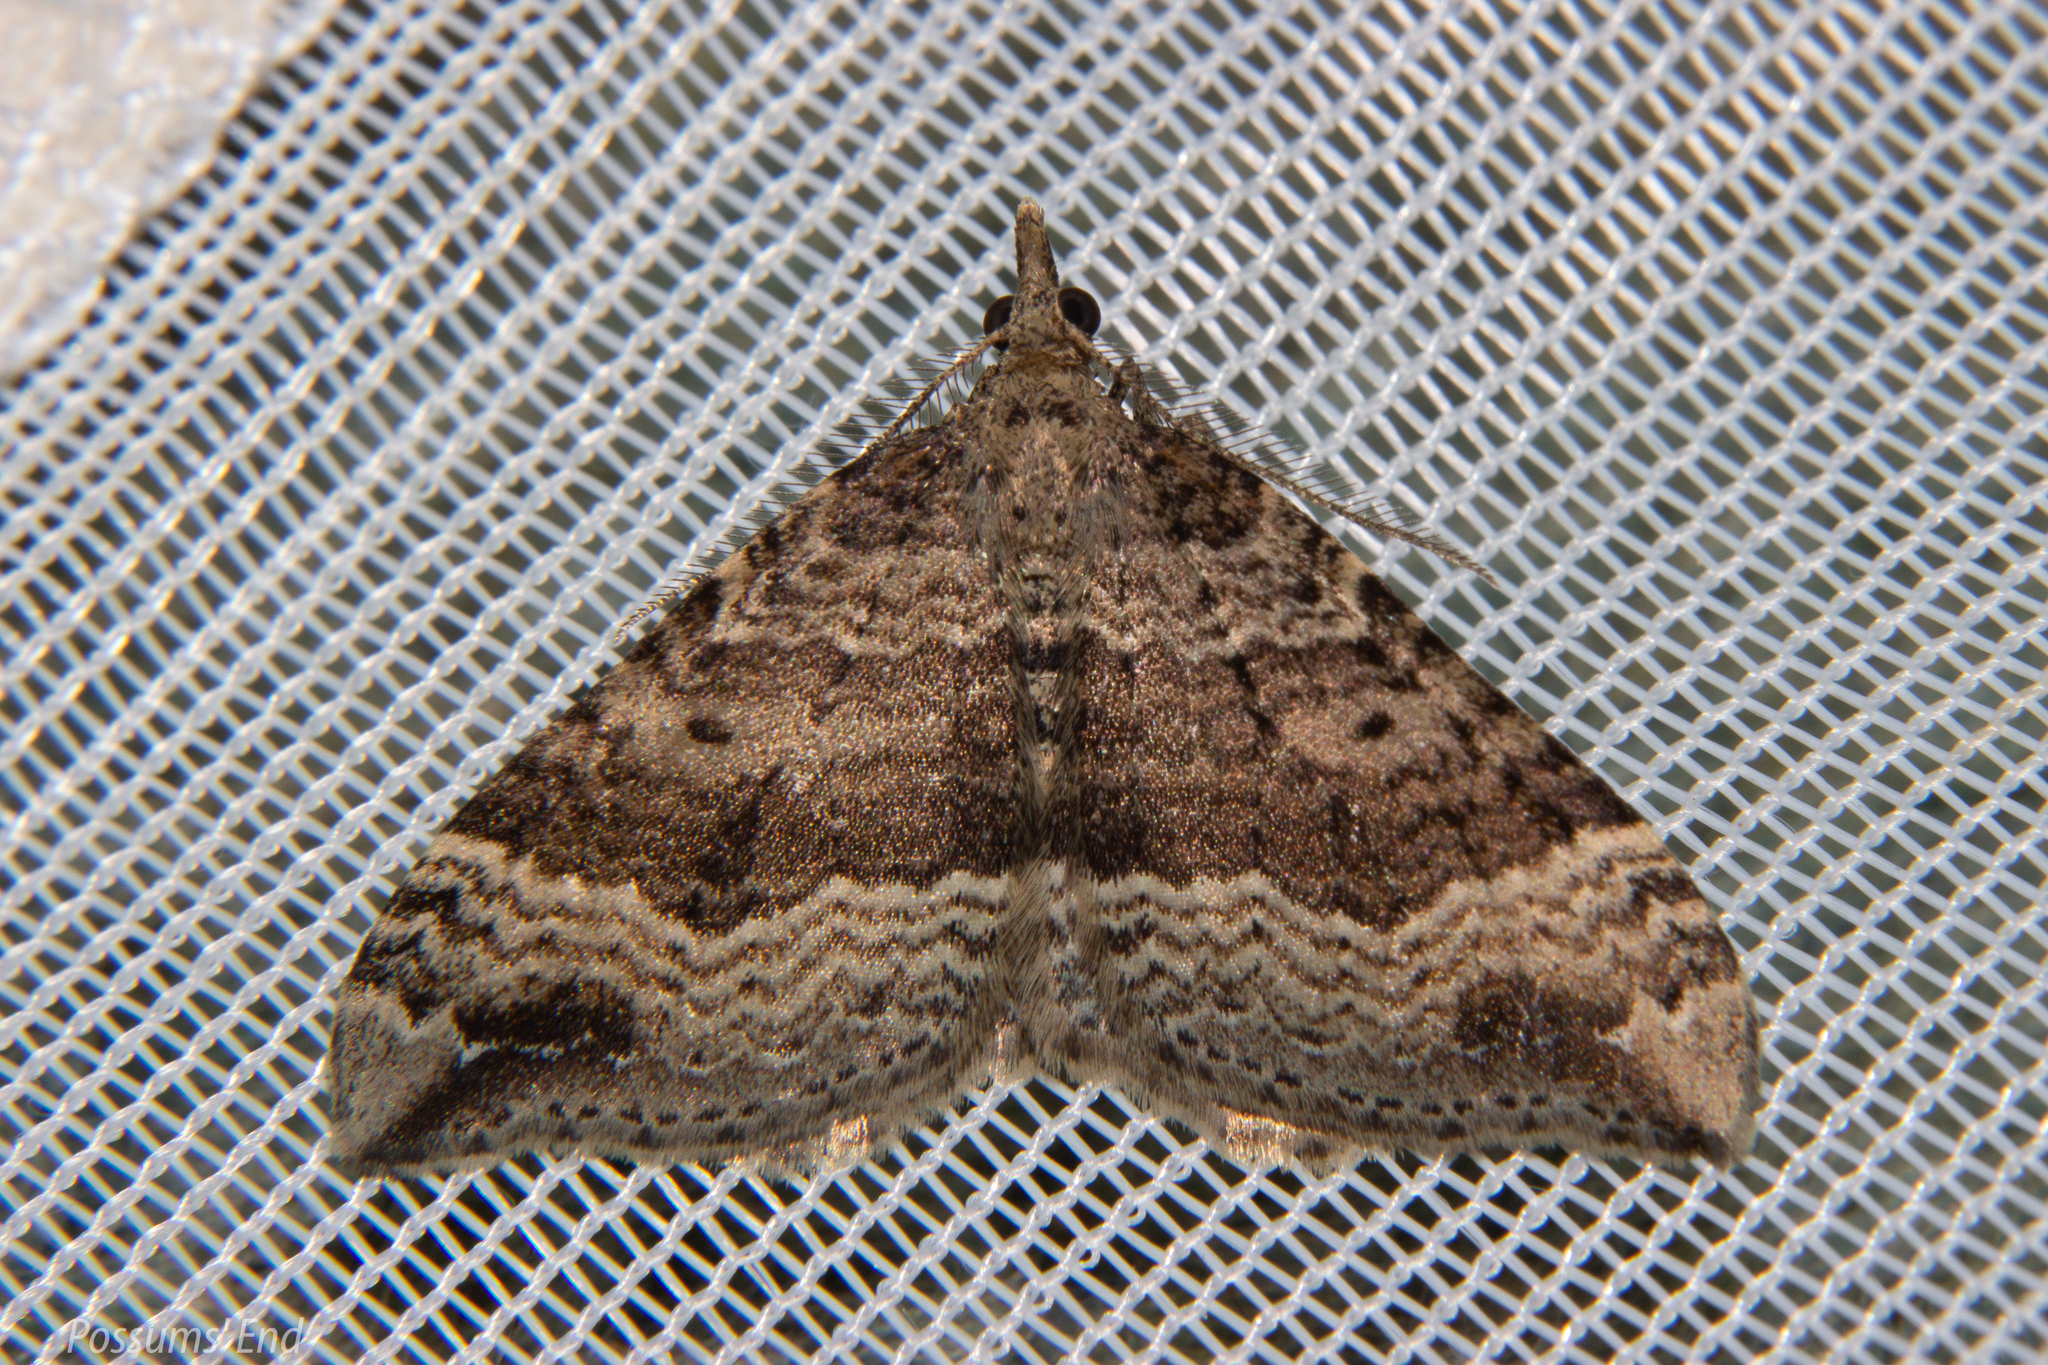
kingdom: Animalia
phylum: Arthropoda
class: Insecta
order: Lepidoptera
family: Geometridae
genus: Homodotis
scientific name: Homodotis falcata
